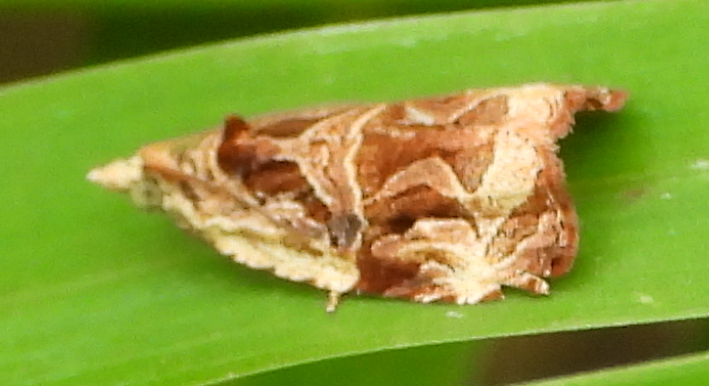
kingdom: Animalia
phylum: Arthropoda
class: Insecta
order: Lepidoptera
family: Tortricidae
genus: Eccopsis
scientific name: Eccopsis incultana
